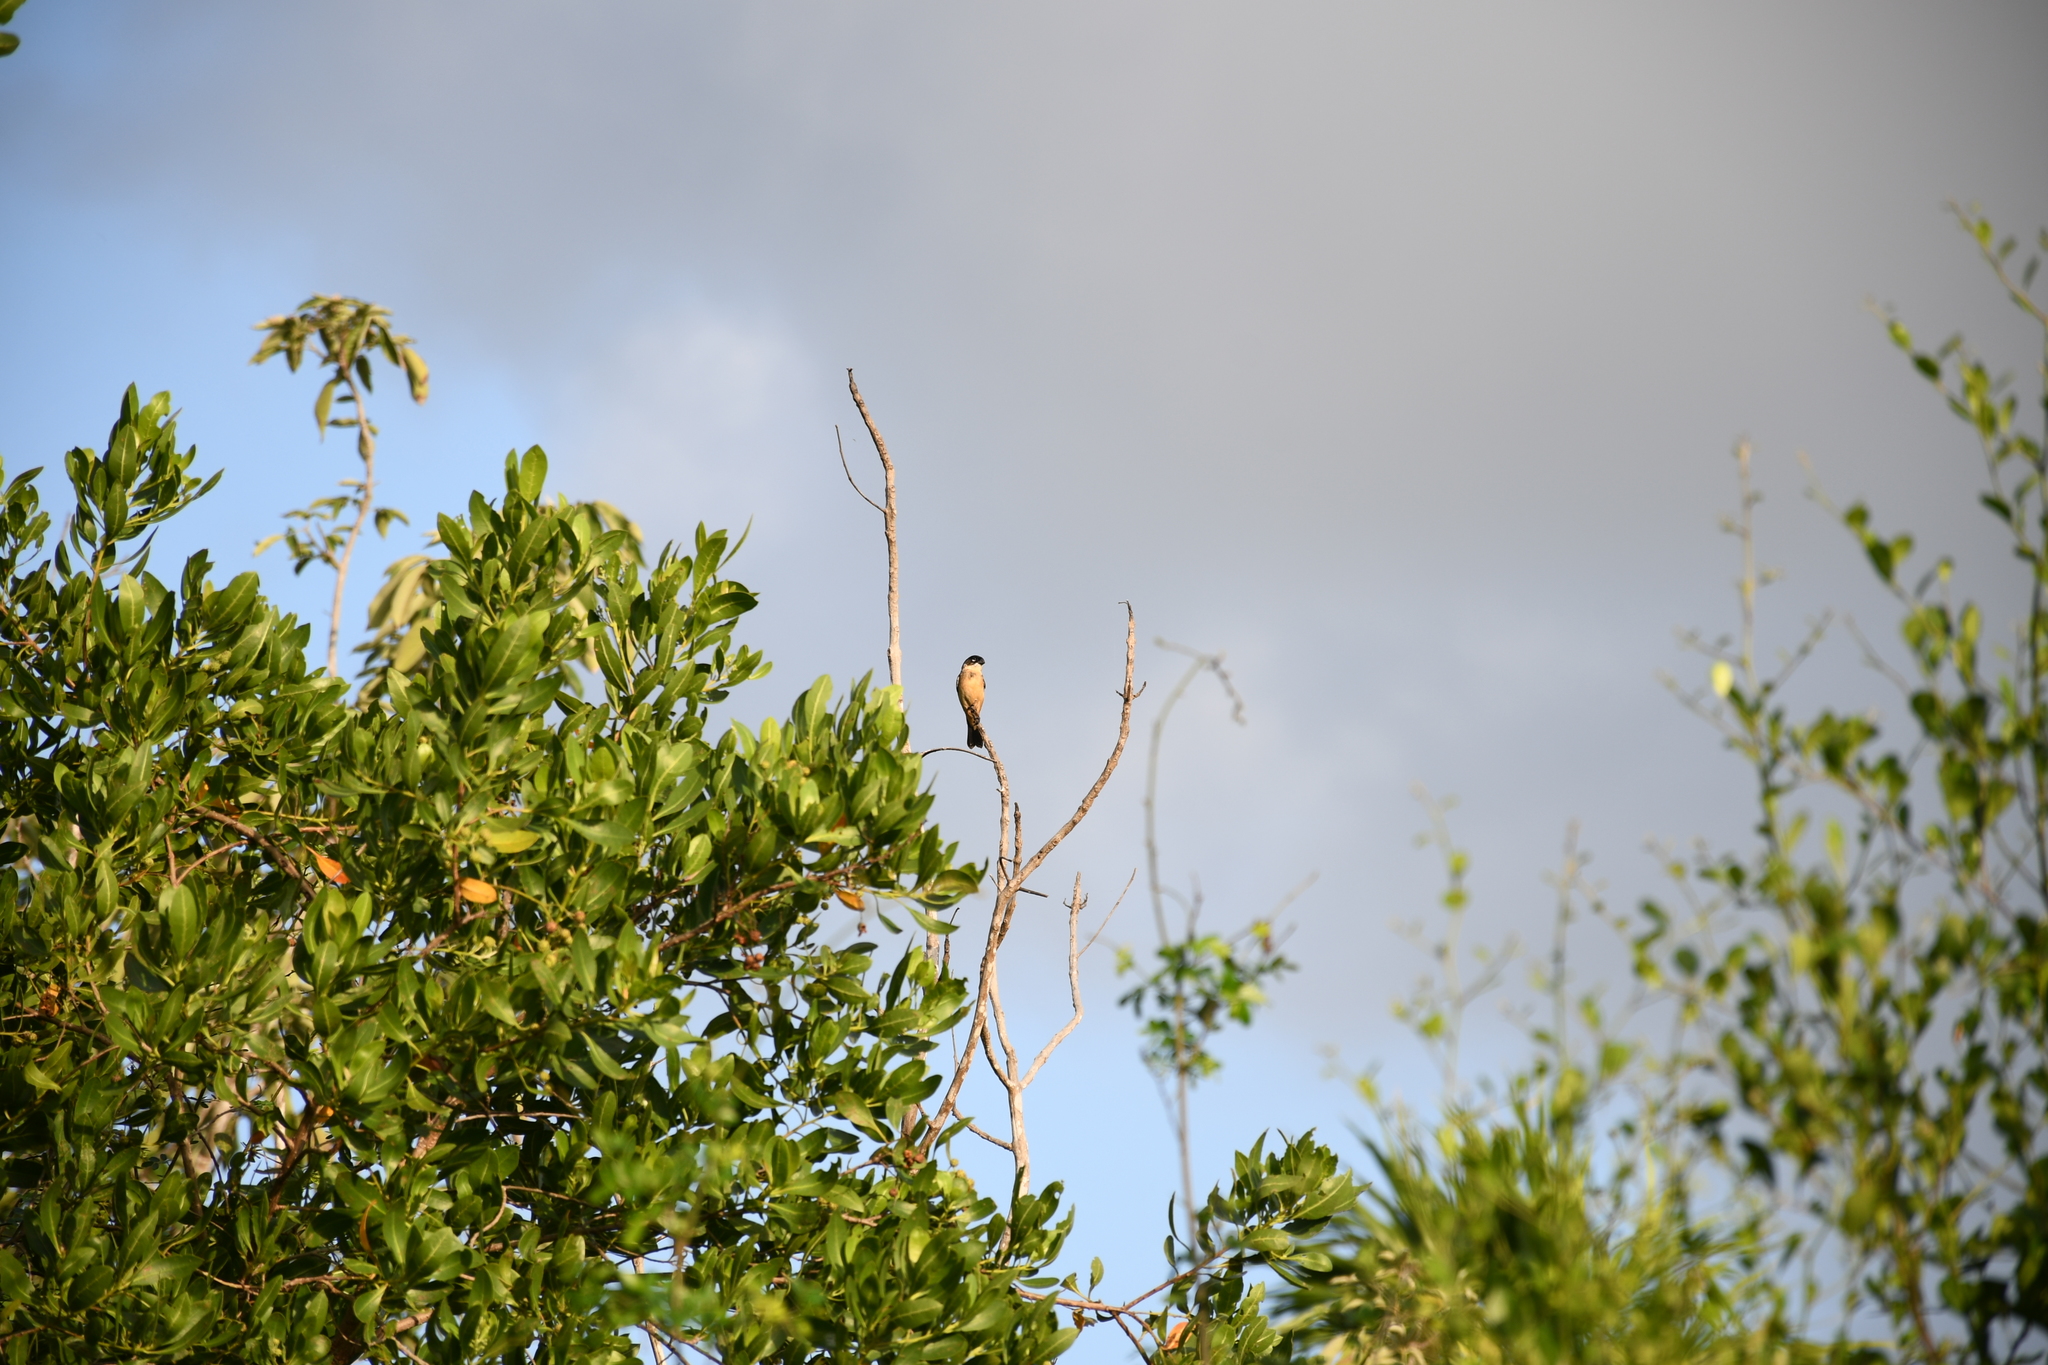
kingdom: Animalia
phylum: Chordata
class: Aves
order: Passeriformes
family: Thraupidae
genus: Sporophila
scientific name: Sporophila morelleti
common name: Morelet's seedeater
